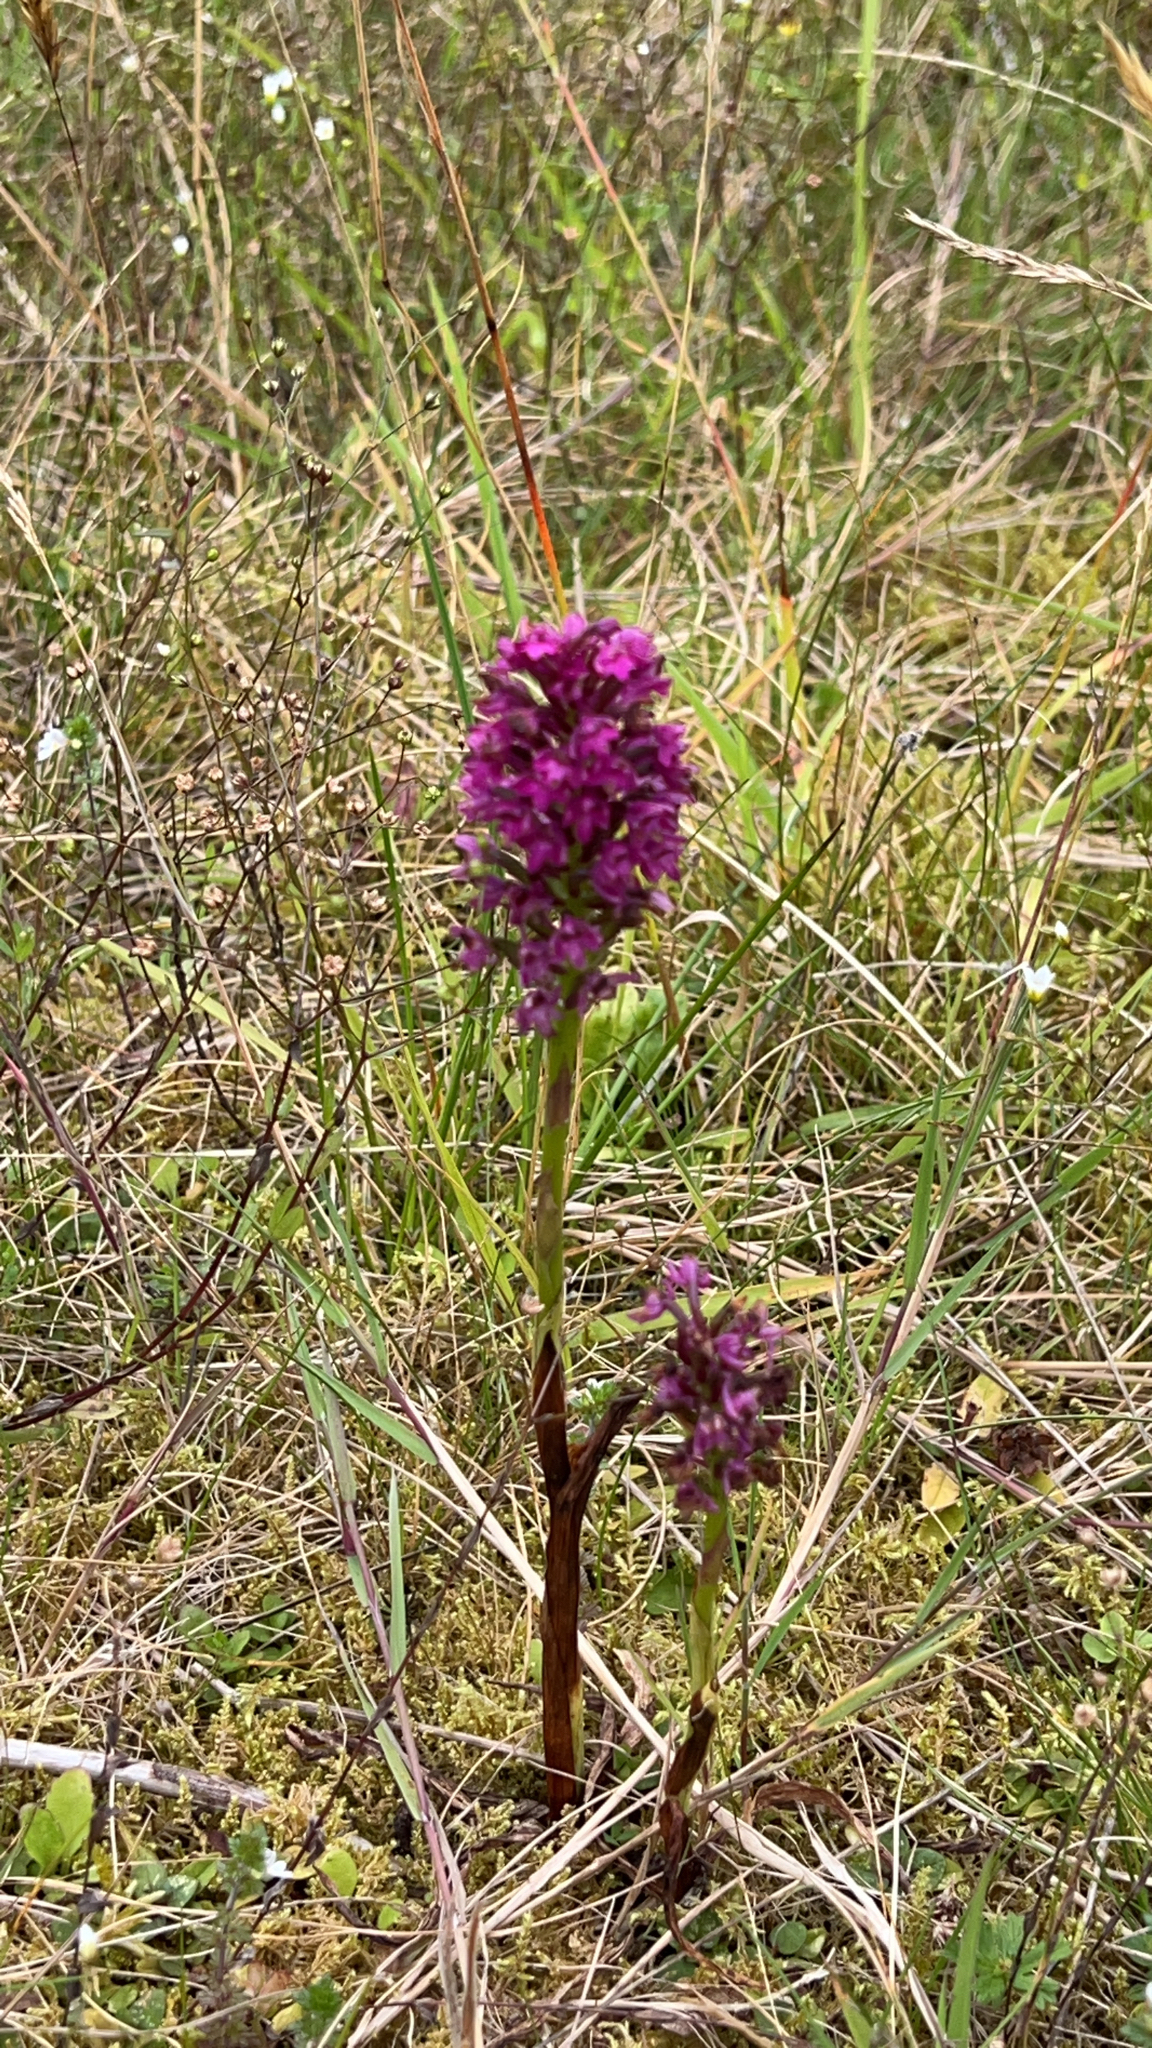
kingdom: Plantae
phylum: Tracheophyta
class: Liliopsida
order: Asparagales
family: Orchidaceae
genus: Anacamptis
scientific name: Anacamptis pyramidalis
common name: Pyramidal orchid
